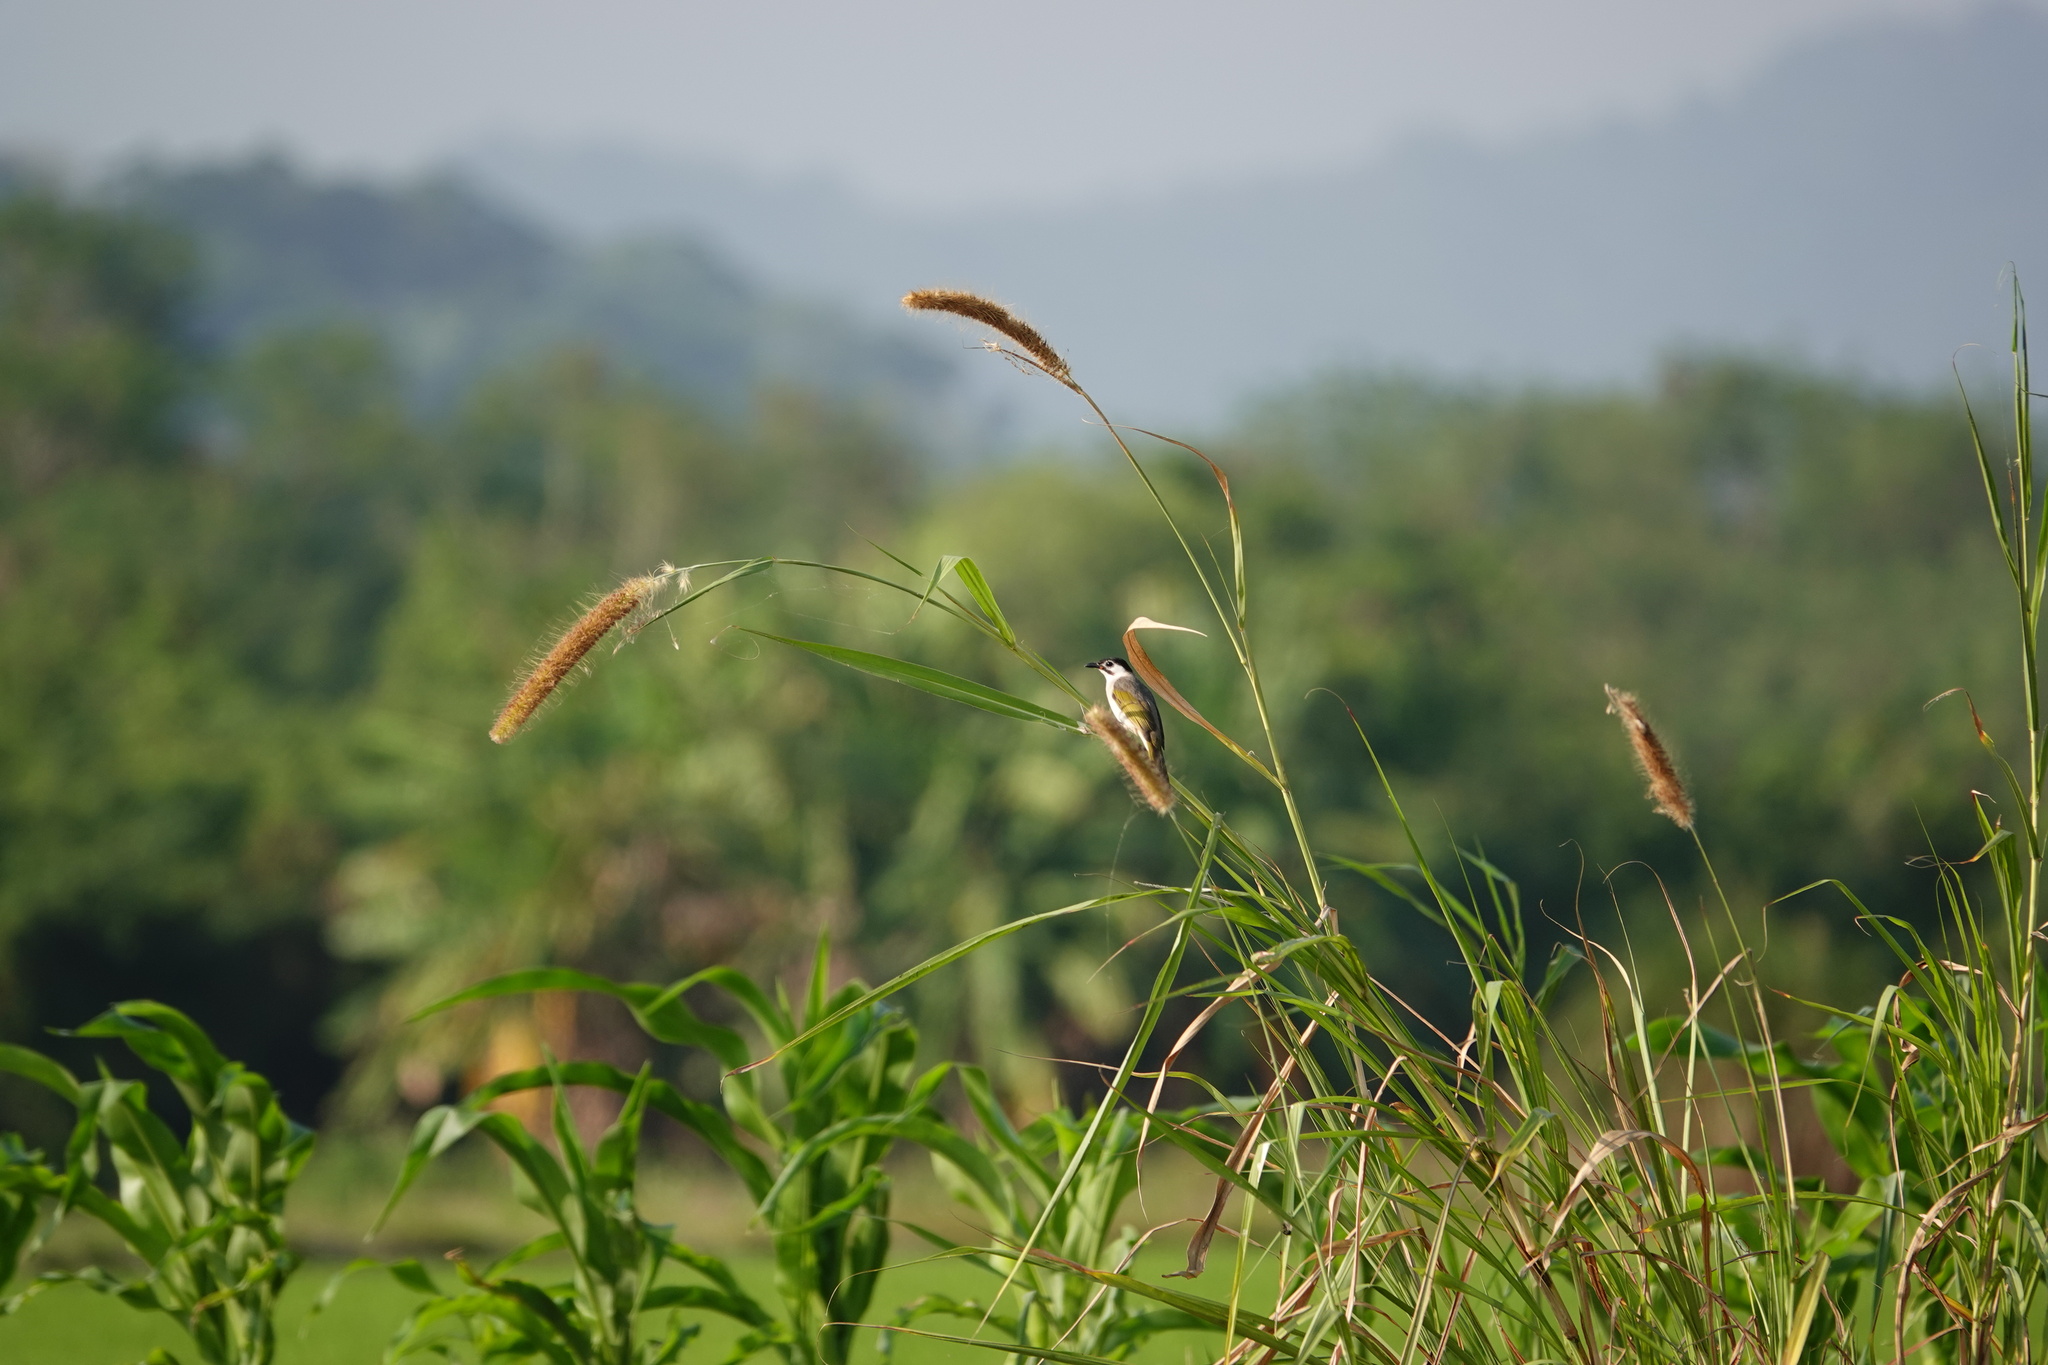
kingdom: Animalia
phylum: Chordata
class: Aves
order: Passeriformes
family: Pycnonotidae
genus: Pycnonotus
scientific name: Pycnonotus taivanus
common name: Styan's bulbul
